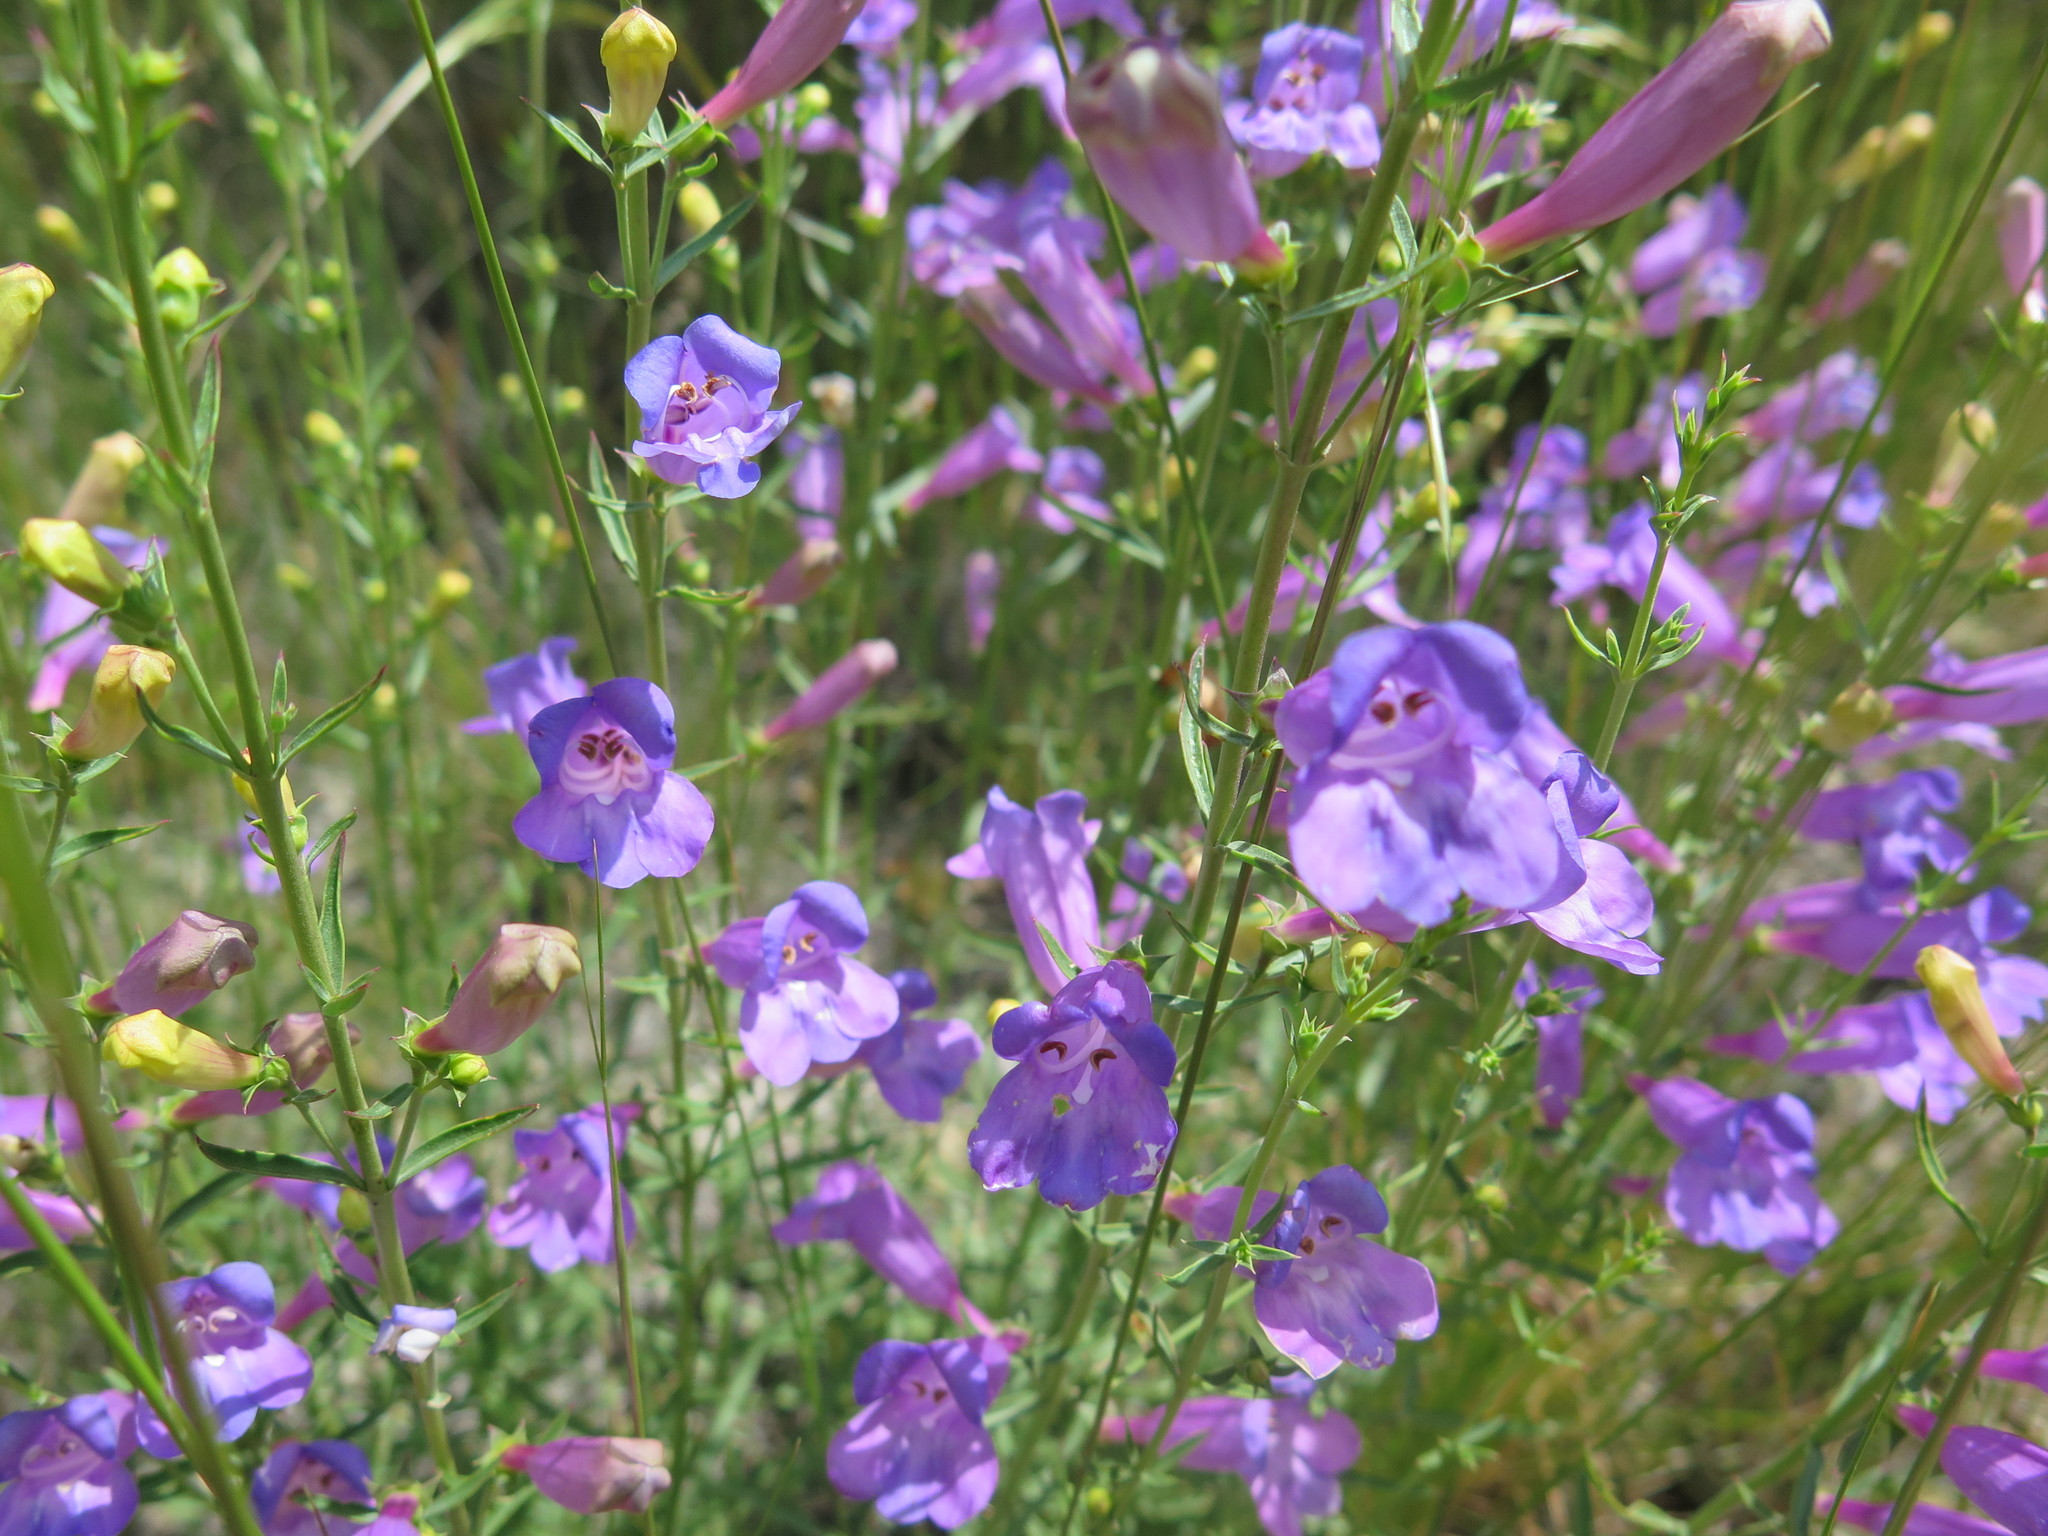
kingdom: Plantae
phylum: Tracheophyta
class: Magnoliopsida
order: Lamiales
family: Plantaginaceae
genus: Penstemon
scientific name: Penstemon heterophyllus
